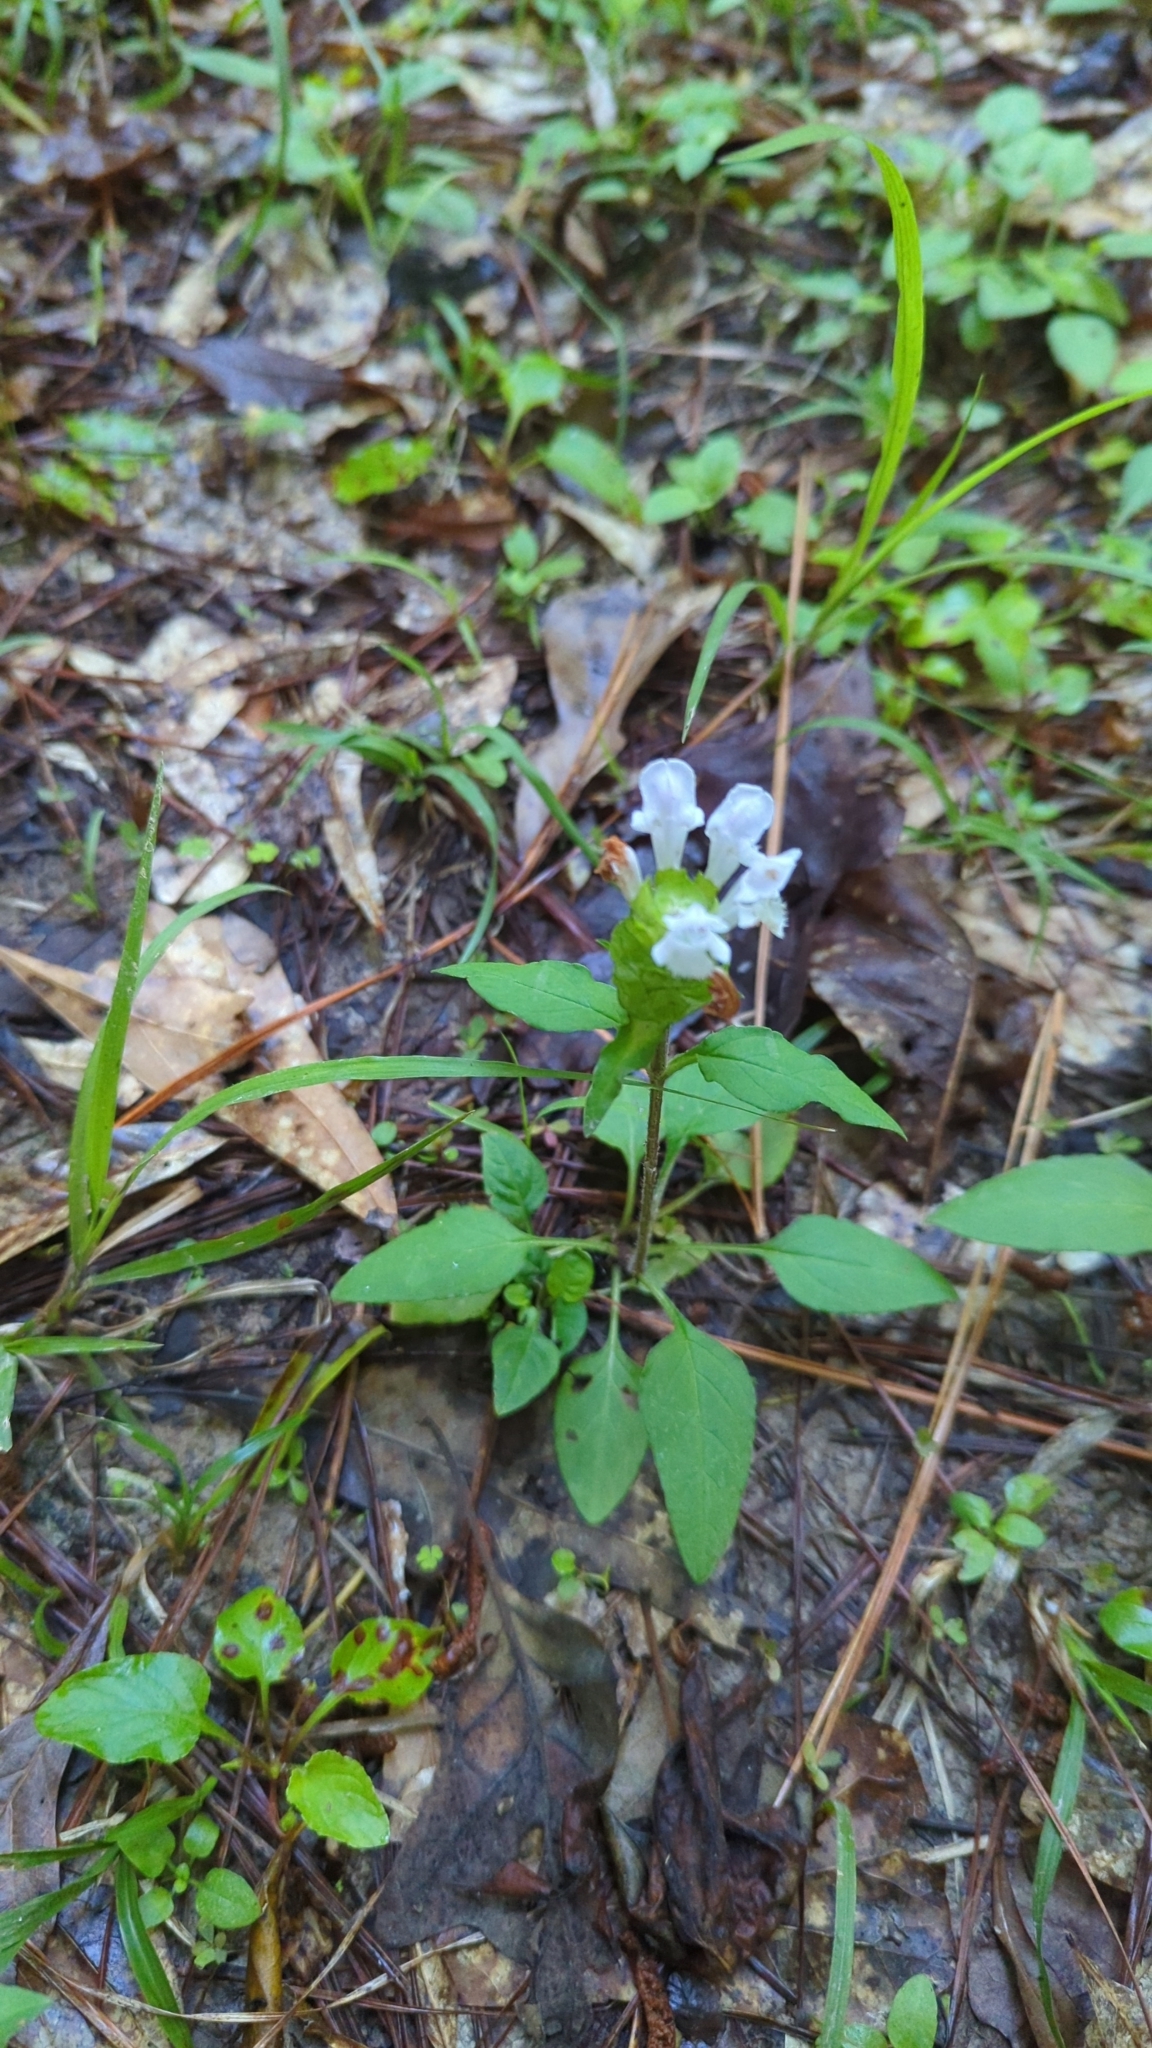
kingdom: Plantae
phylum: Tracheophyta
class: Magnoliopsida
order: Lamiales
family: Lamiaceae
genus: Prunella
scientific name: Prunella vulgaris
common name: Heal-all
